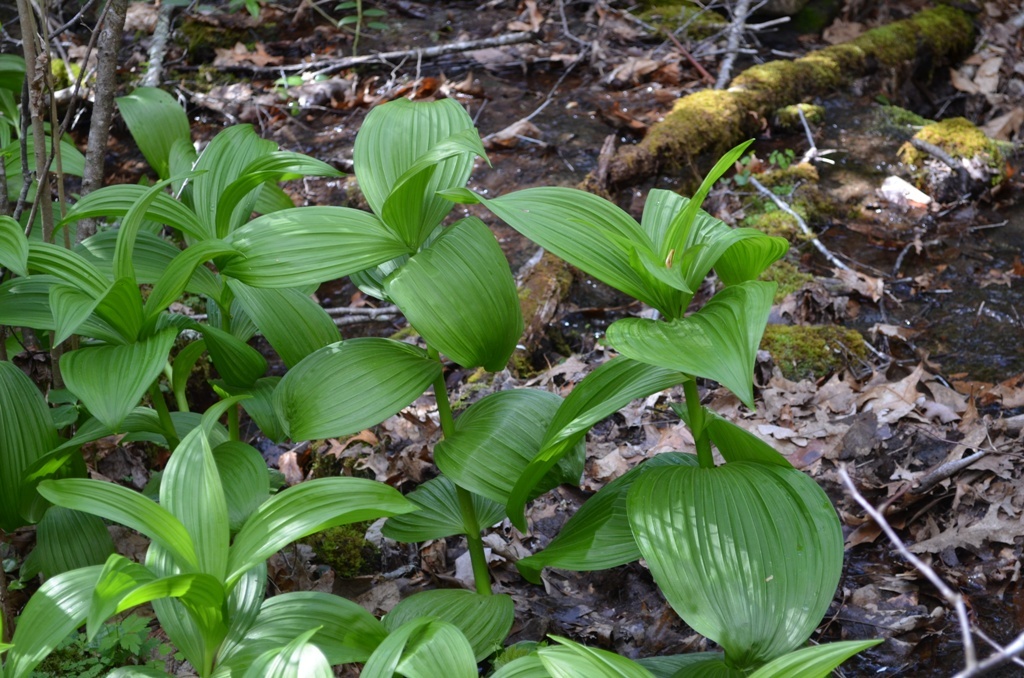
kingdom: Plantae
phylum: Tracheophyta
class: Liliopsida
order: Liliales
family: Melanthiaceae
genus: Veratrum
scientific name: Veratrum viride
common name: American false hellebore
